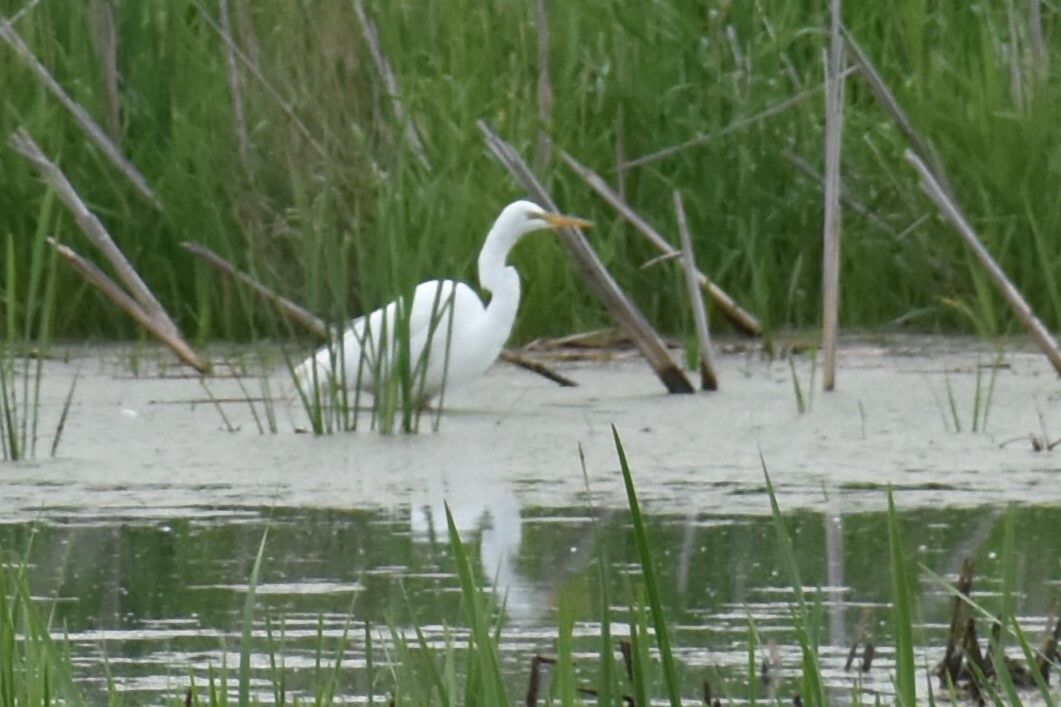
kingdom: Animalia
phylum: Chordata
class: Aves
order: Pelecaniformes
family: Ardeidae
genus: Ardea
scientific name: Ardea alba
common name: Great egret
